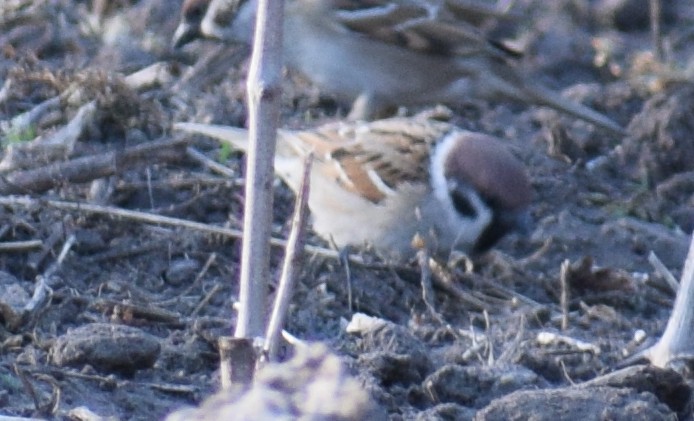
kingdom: Animalia
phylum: Chordata
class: Aves
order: Passeriformes
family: Passeridae
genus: Passer
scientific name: Passer montanus
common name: Eurasian tree sparrow
